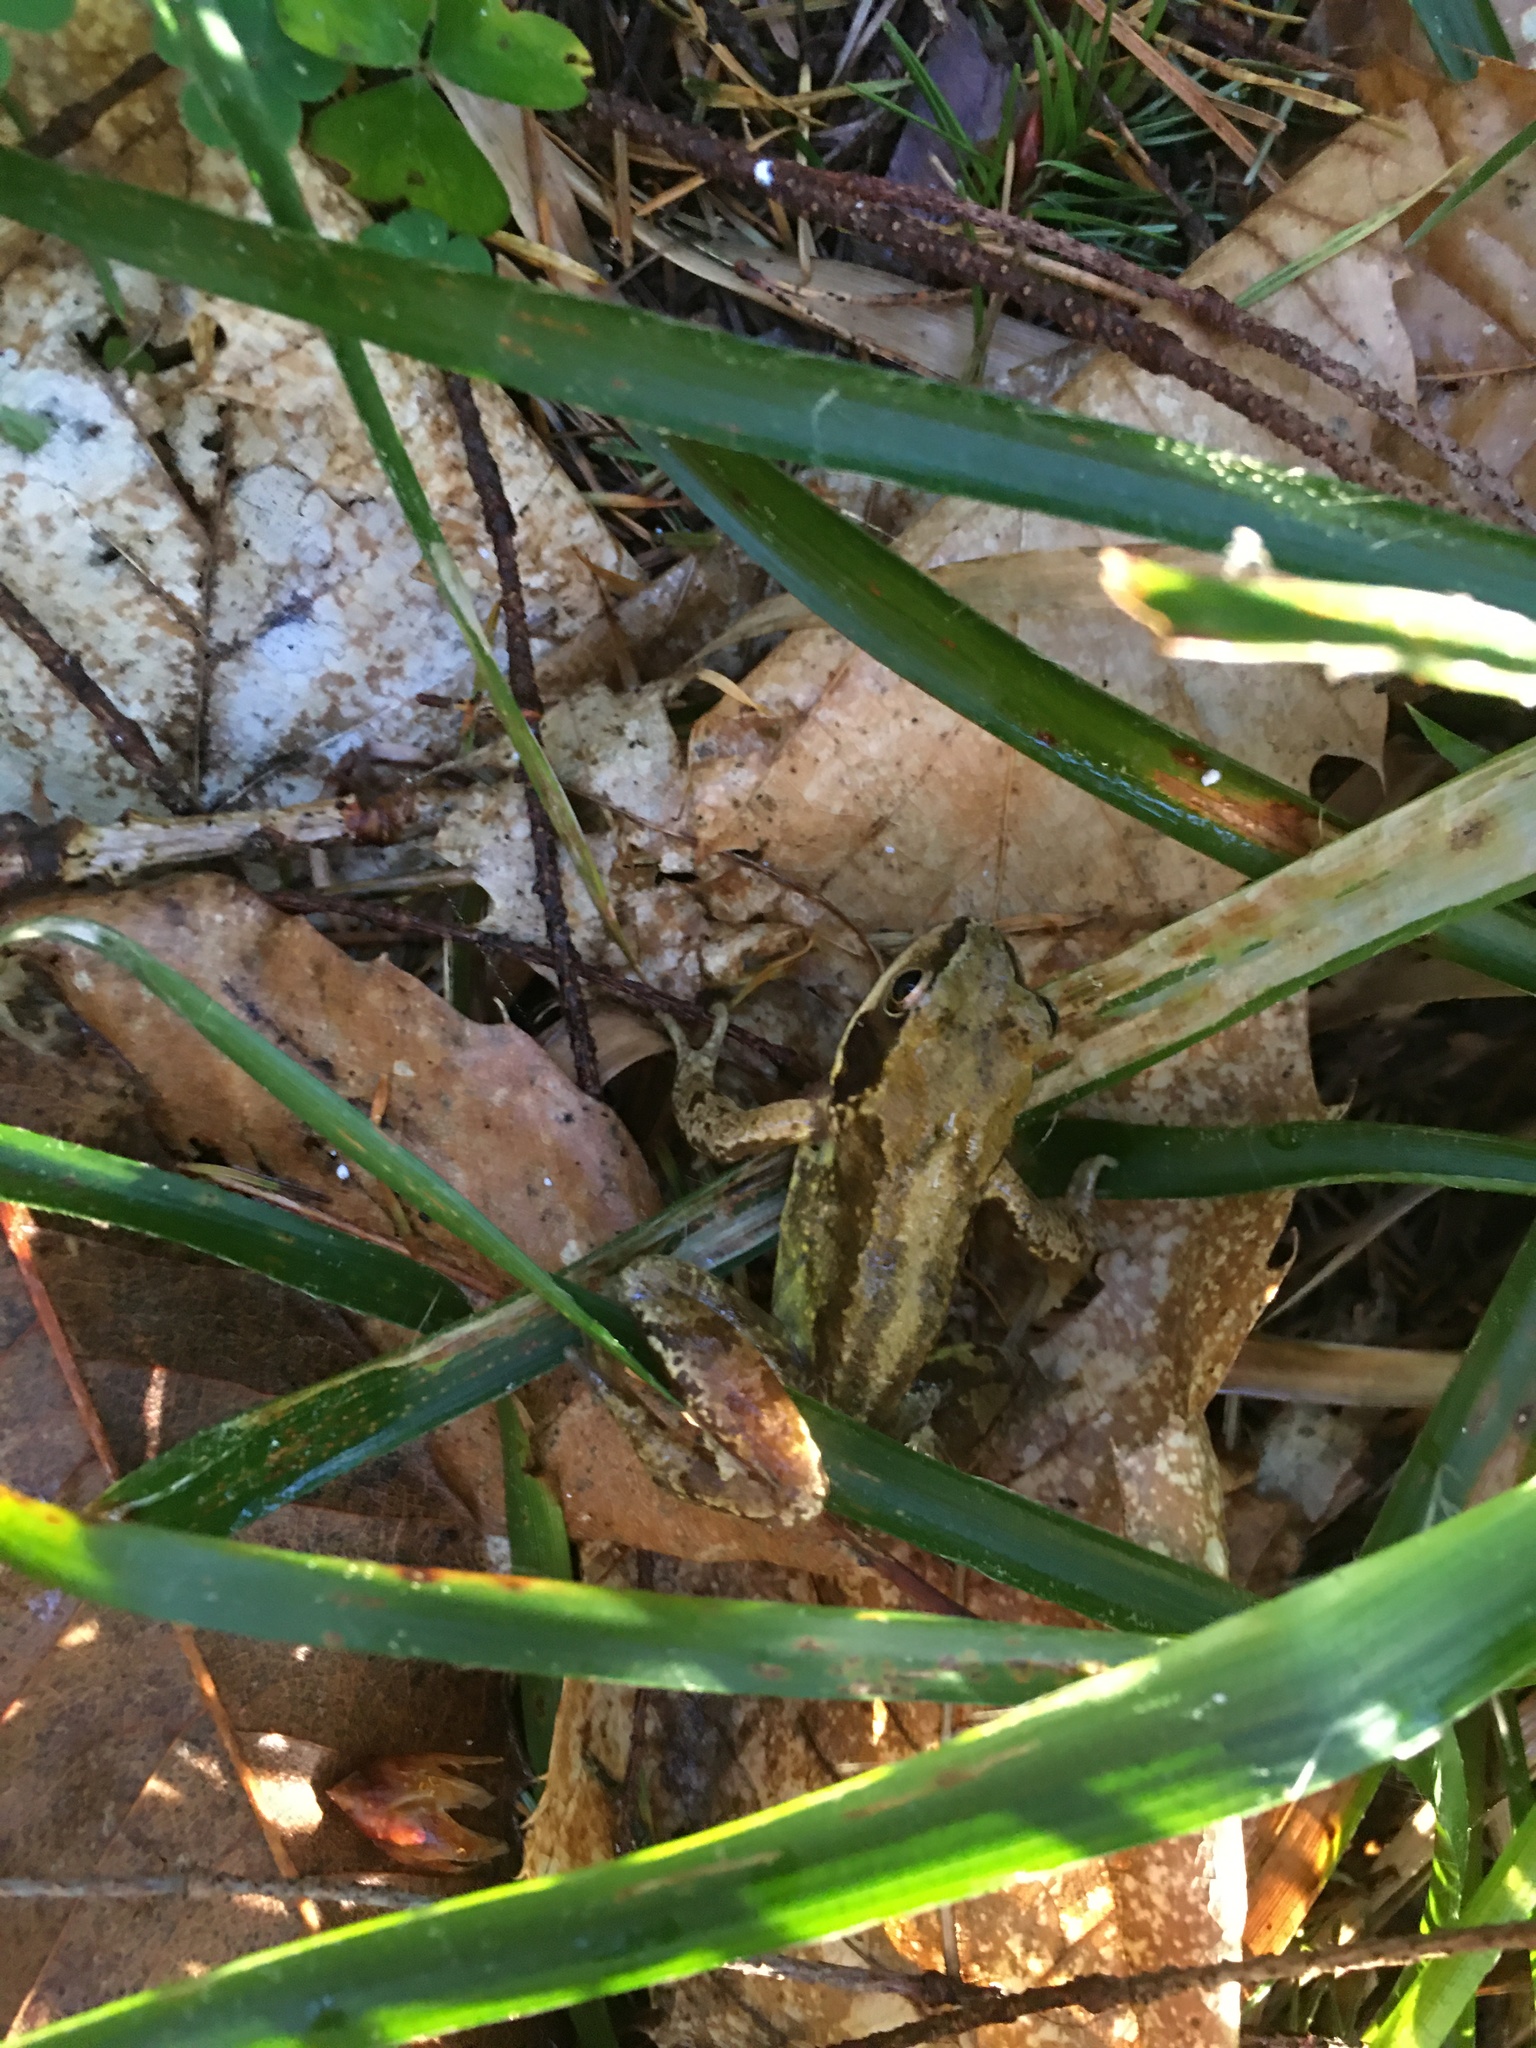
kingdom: Animalia
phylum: Chordata
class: Amphibia
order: Anura
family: Ranidae
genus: Rana
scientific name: Rana temporaria
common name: Common frog
